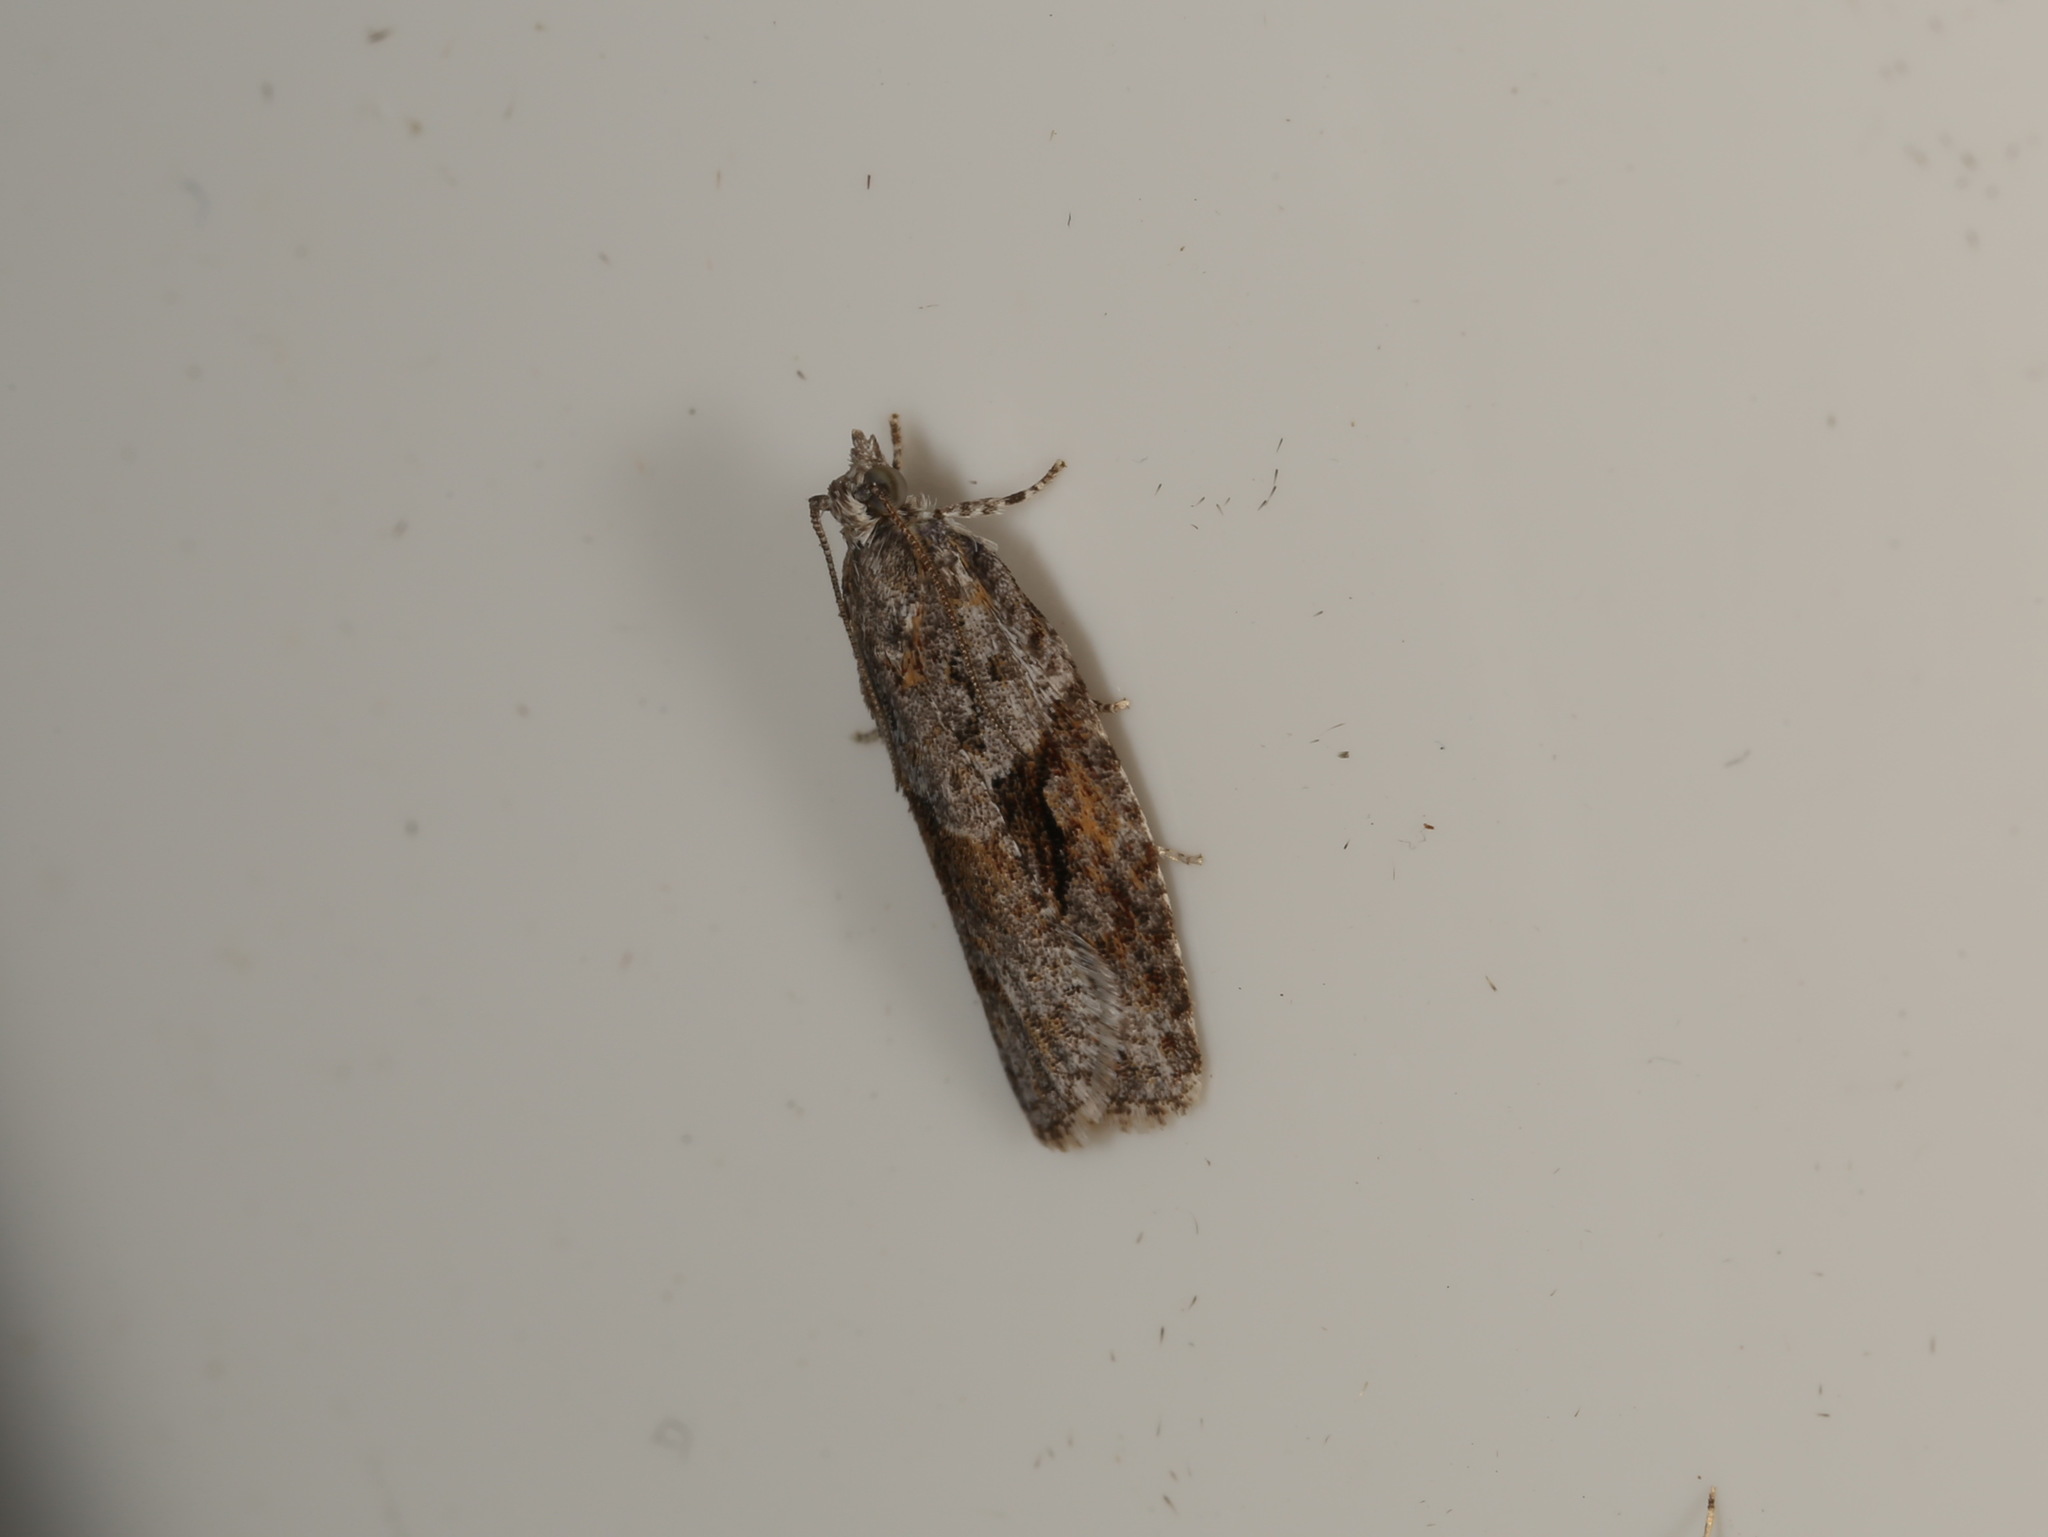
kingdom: Animalia
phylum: Arthropoda
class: Insecta
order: Lepidoptera
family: Tortricidae
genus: Acropolitis
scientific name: Acropolitis rudisana
